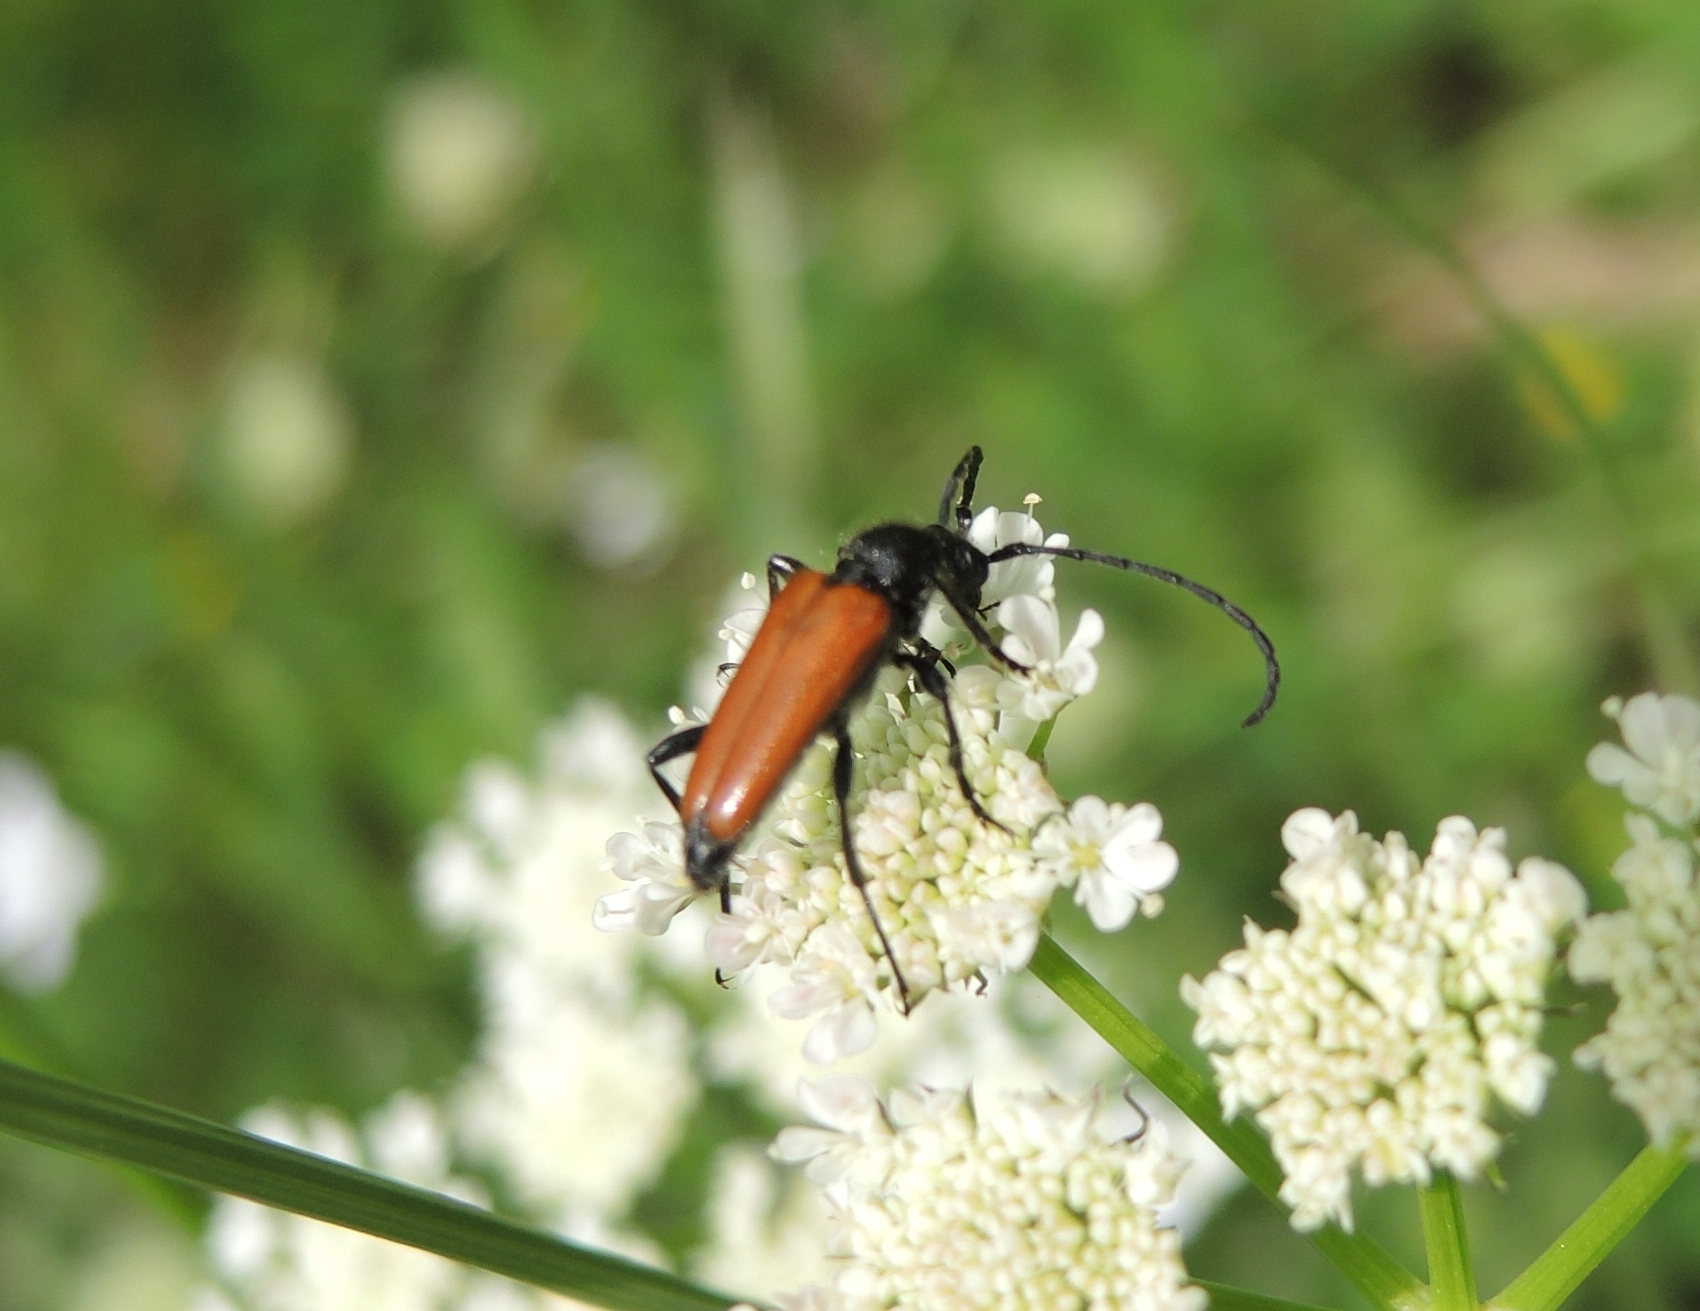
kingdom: Animalia
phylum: Arthropoda
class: Insecta
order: Coleoptera
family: Cerambycidae
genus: Paracorymbia
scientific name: Paracorymbia pallens
